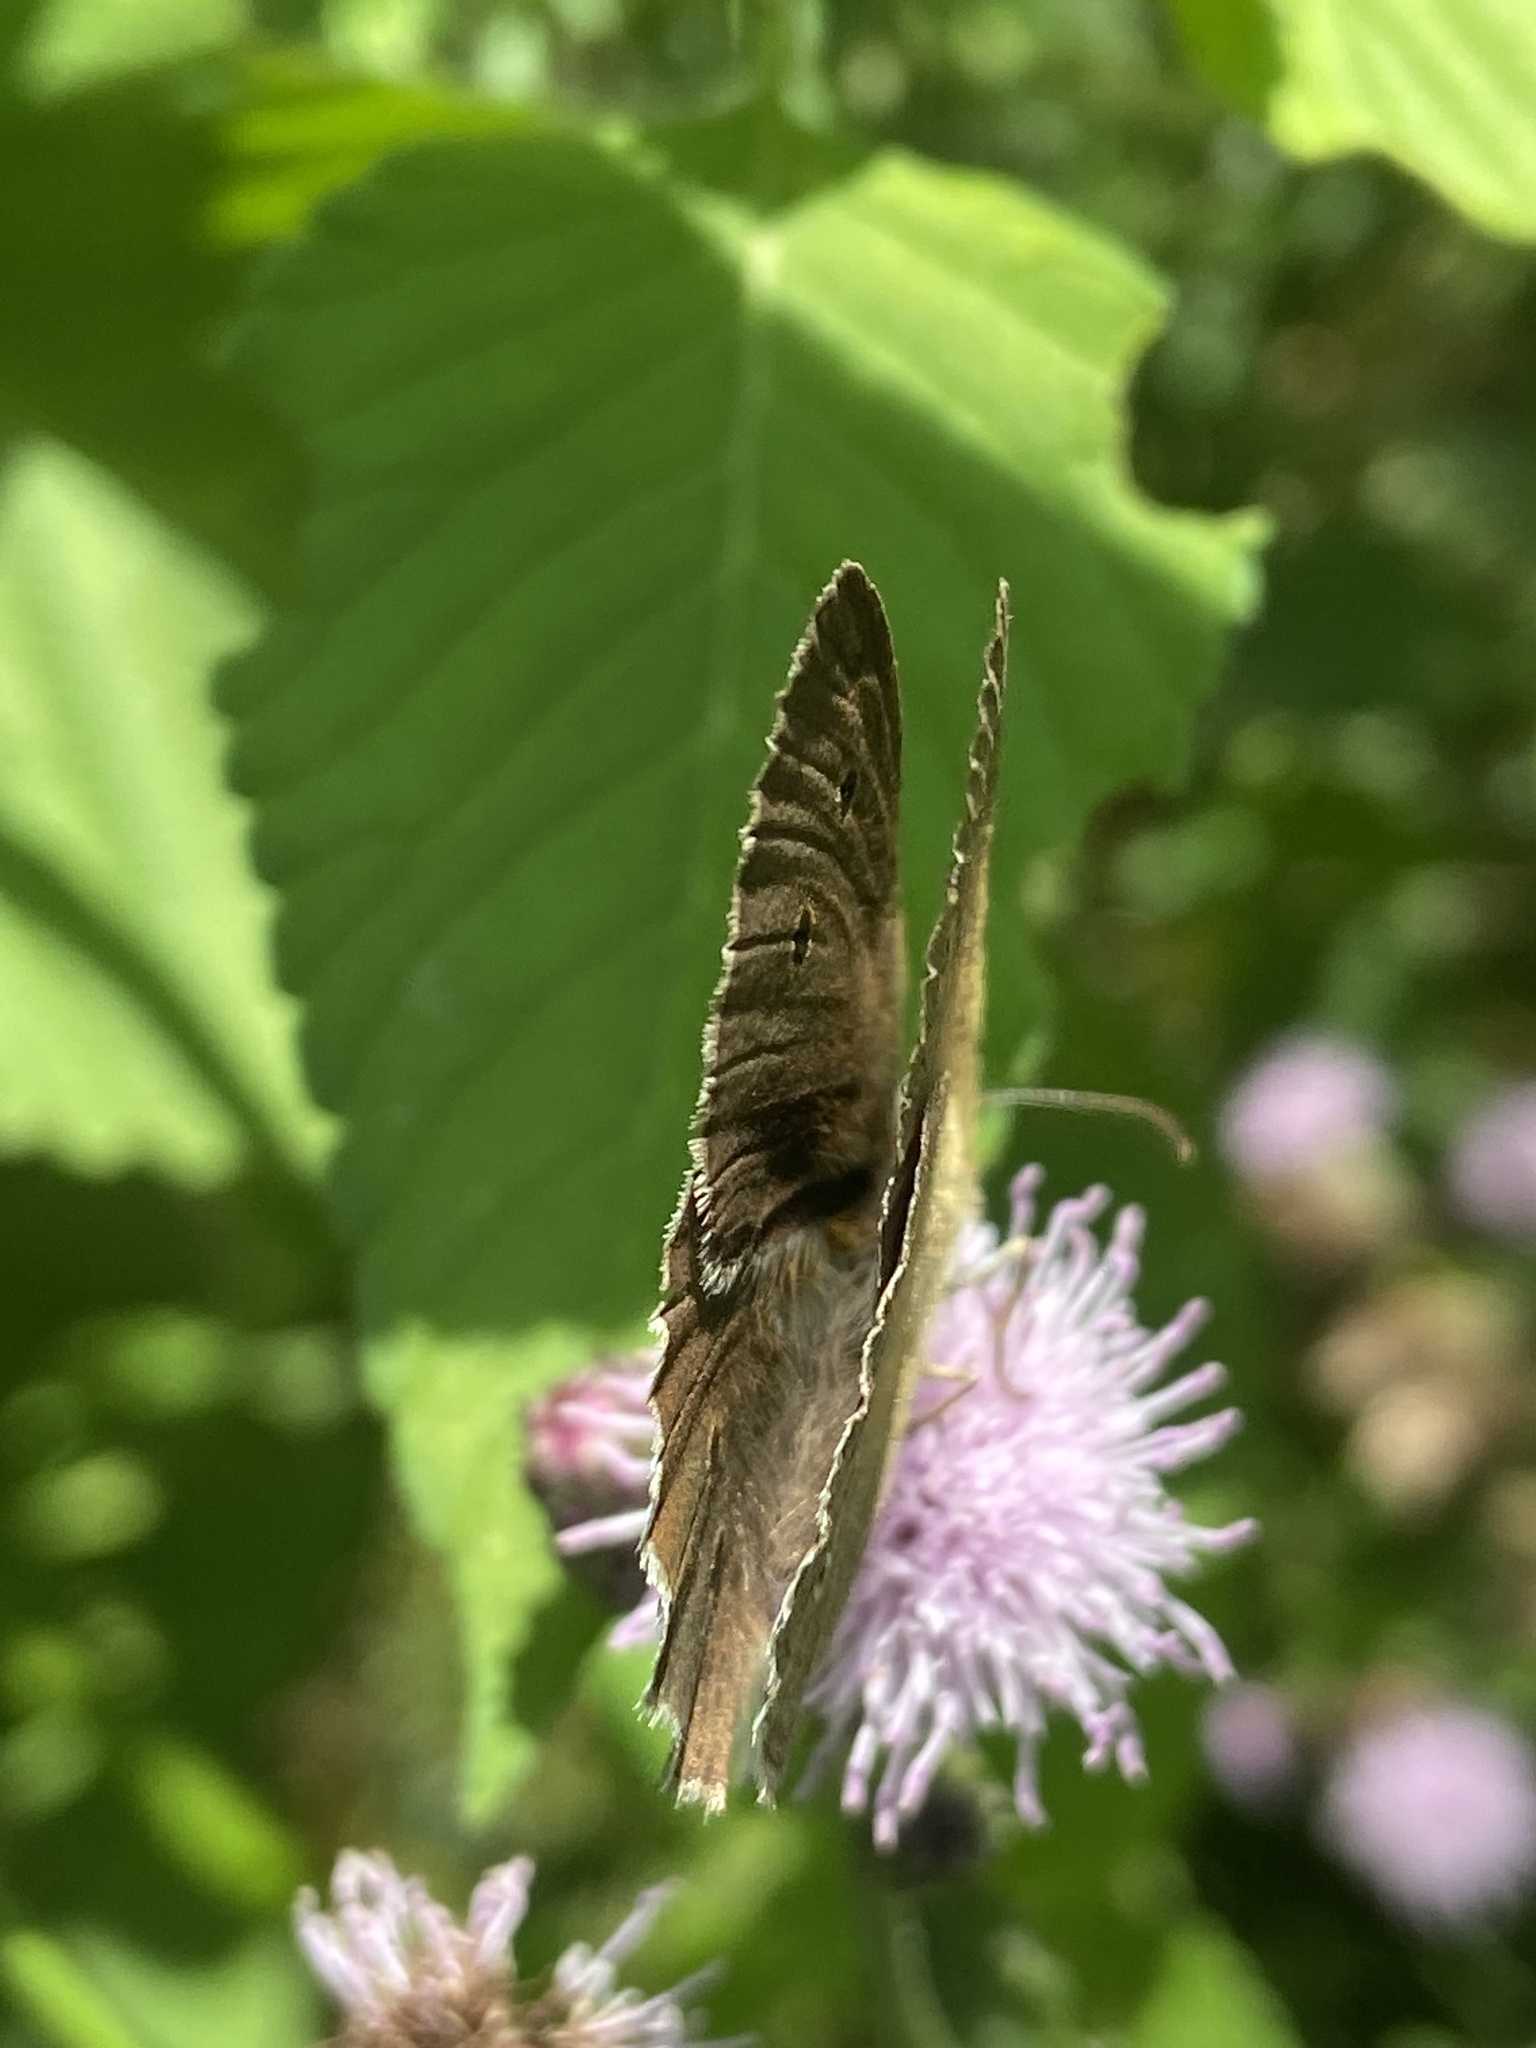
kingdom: Animalia
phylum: Arthropoda
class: Insecta
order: Lepidoptera
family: Nymphalidae
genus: Aphantopus
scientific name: Aphantopus hyperantus
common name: Ringlet
